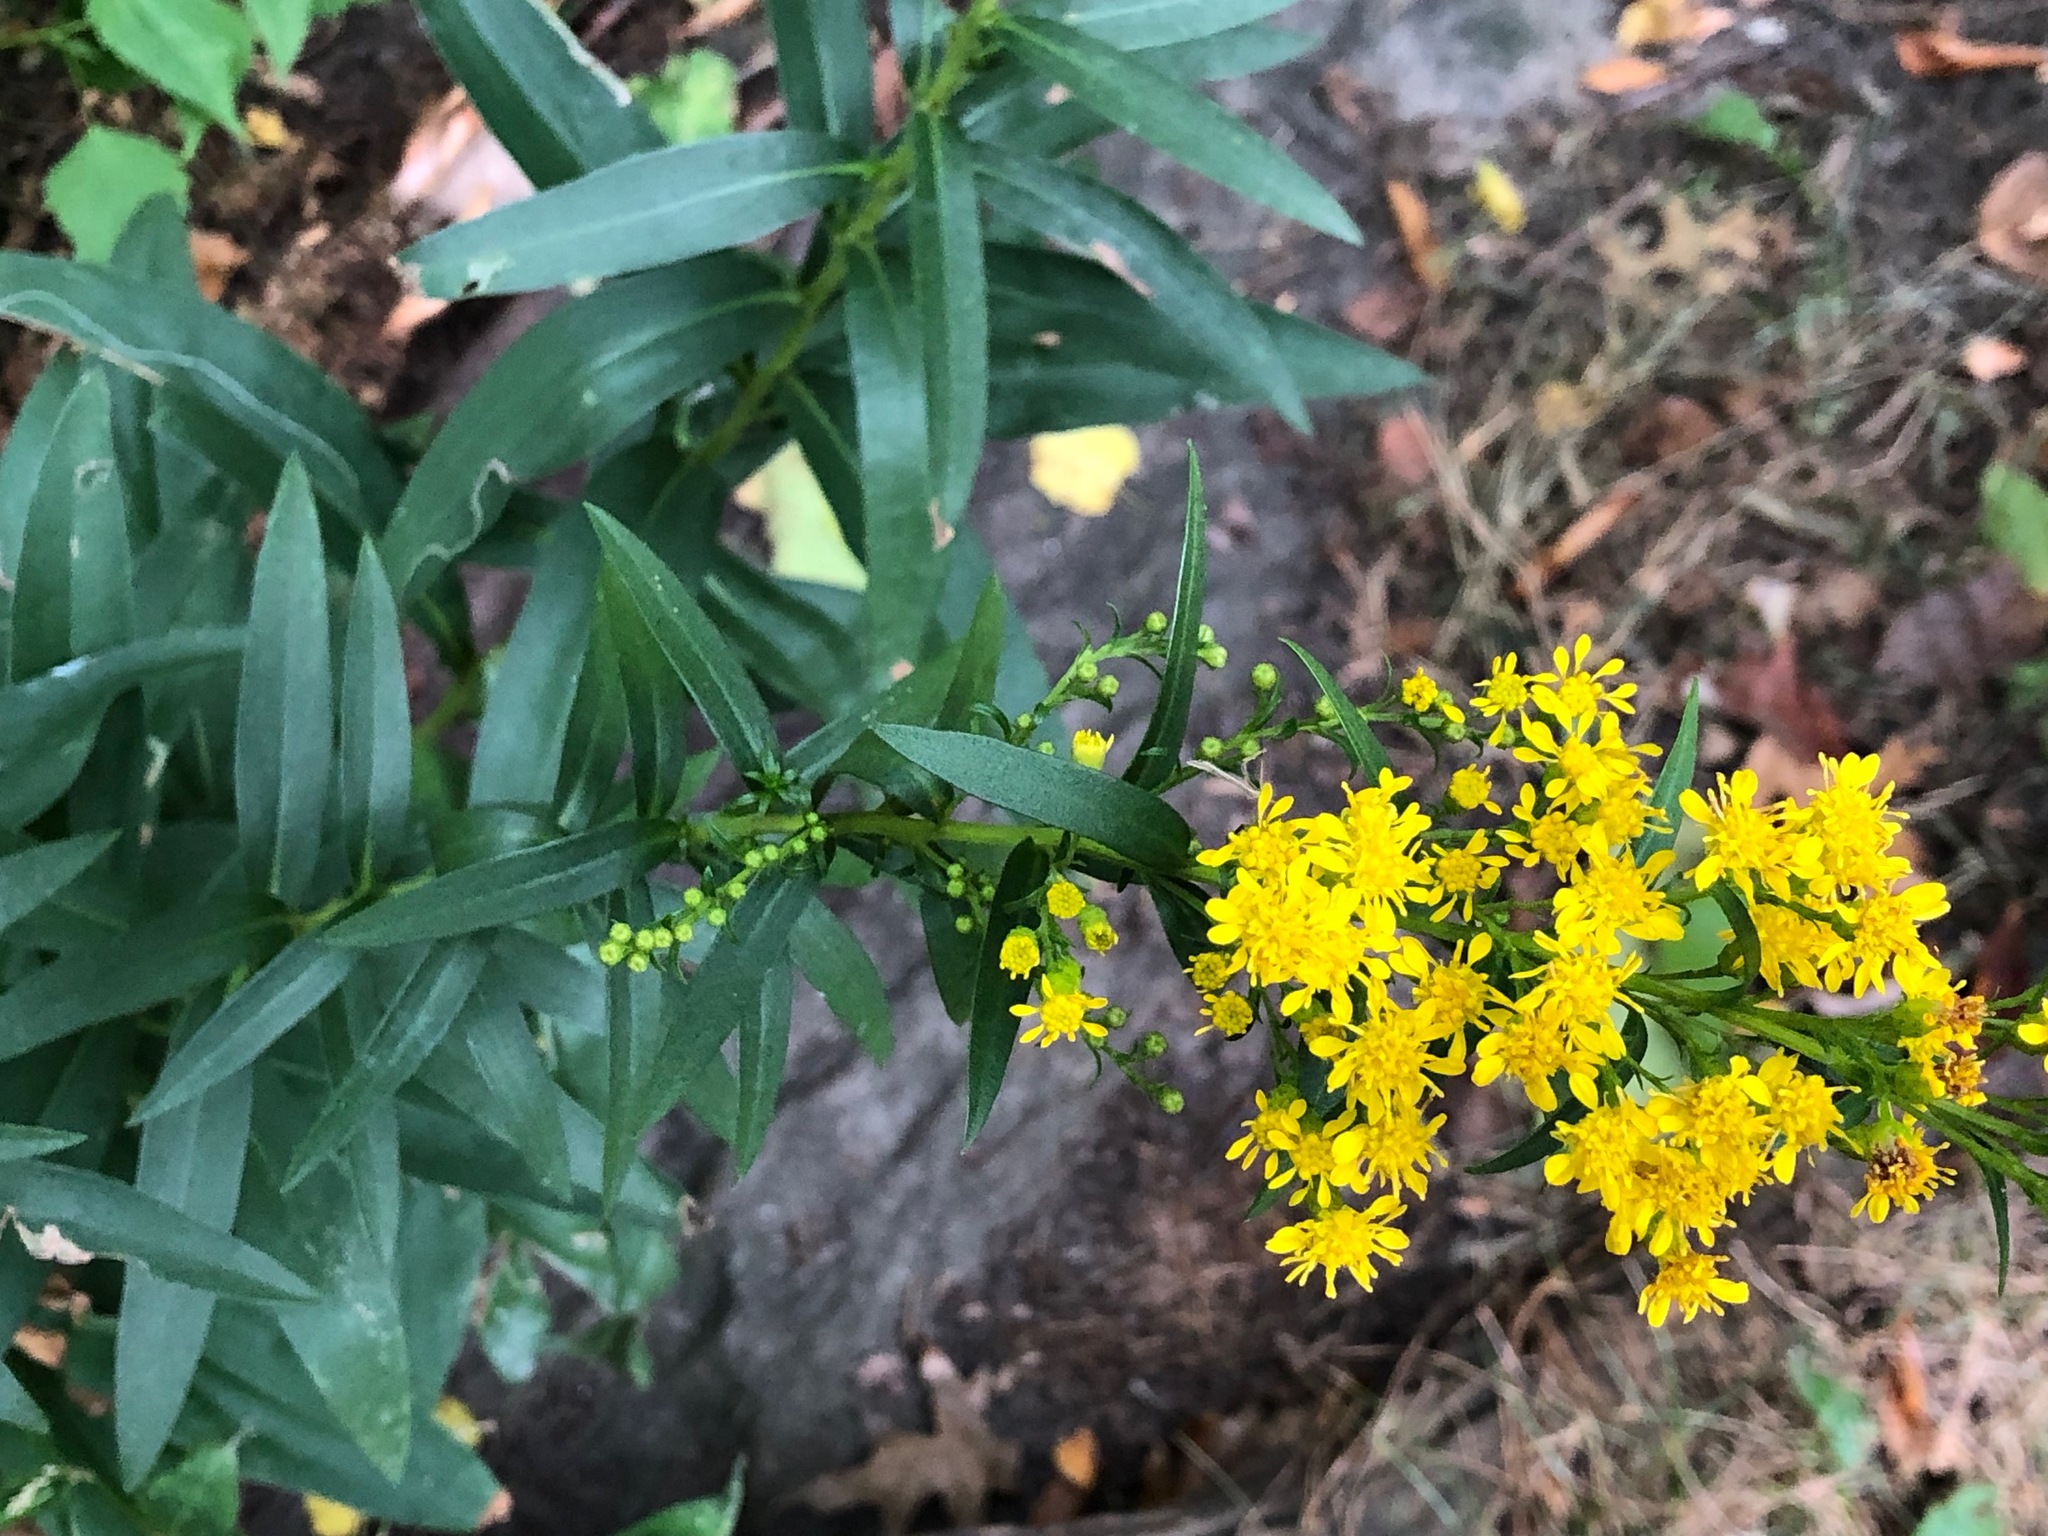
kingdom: Plantae
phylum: Tracheophyta
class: Magnoliopsida
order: Asterales
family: Asteraceae
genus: Solidago
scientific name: Solidago sempervirens
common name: Salt-marsh goldenrod
